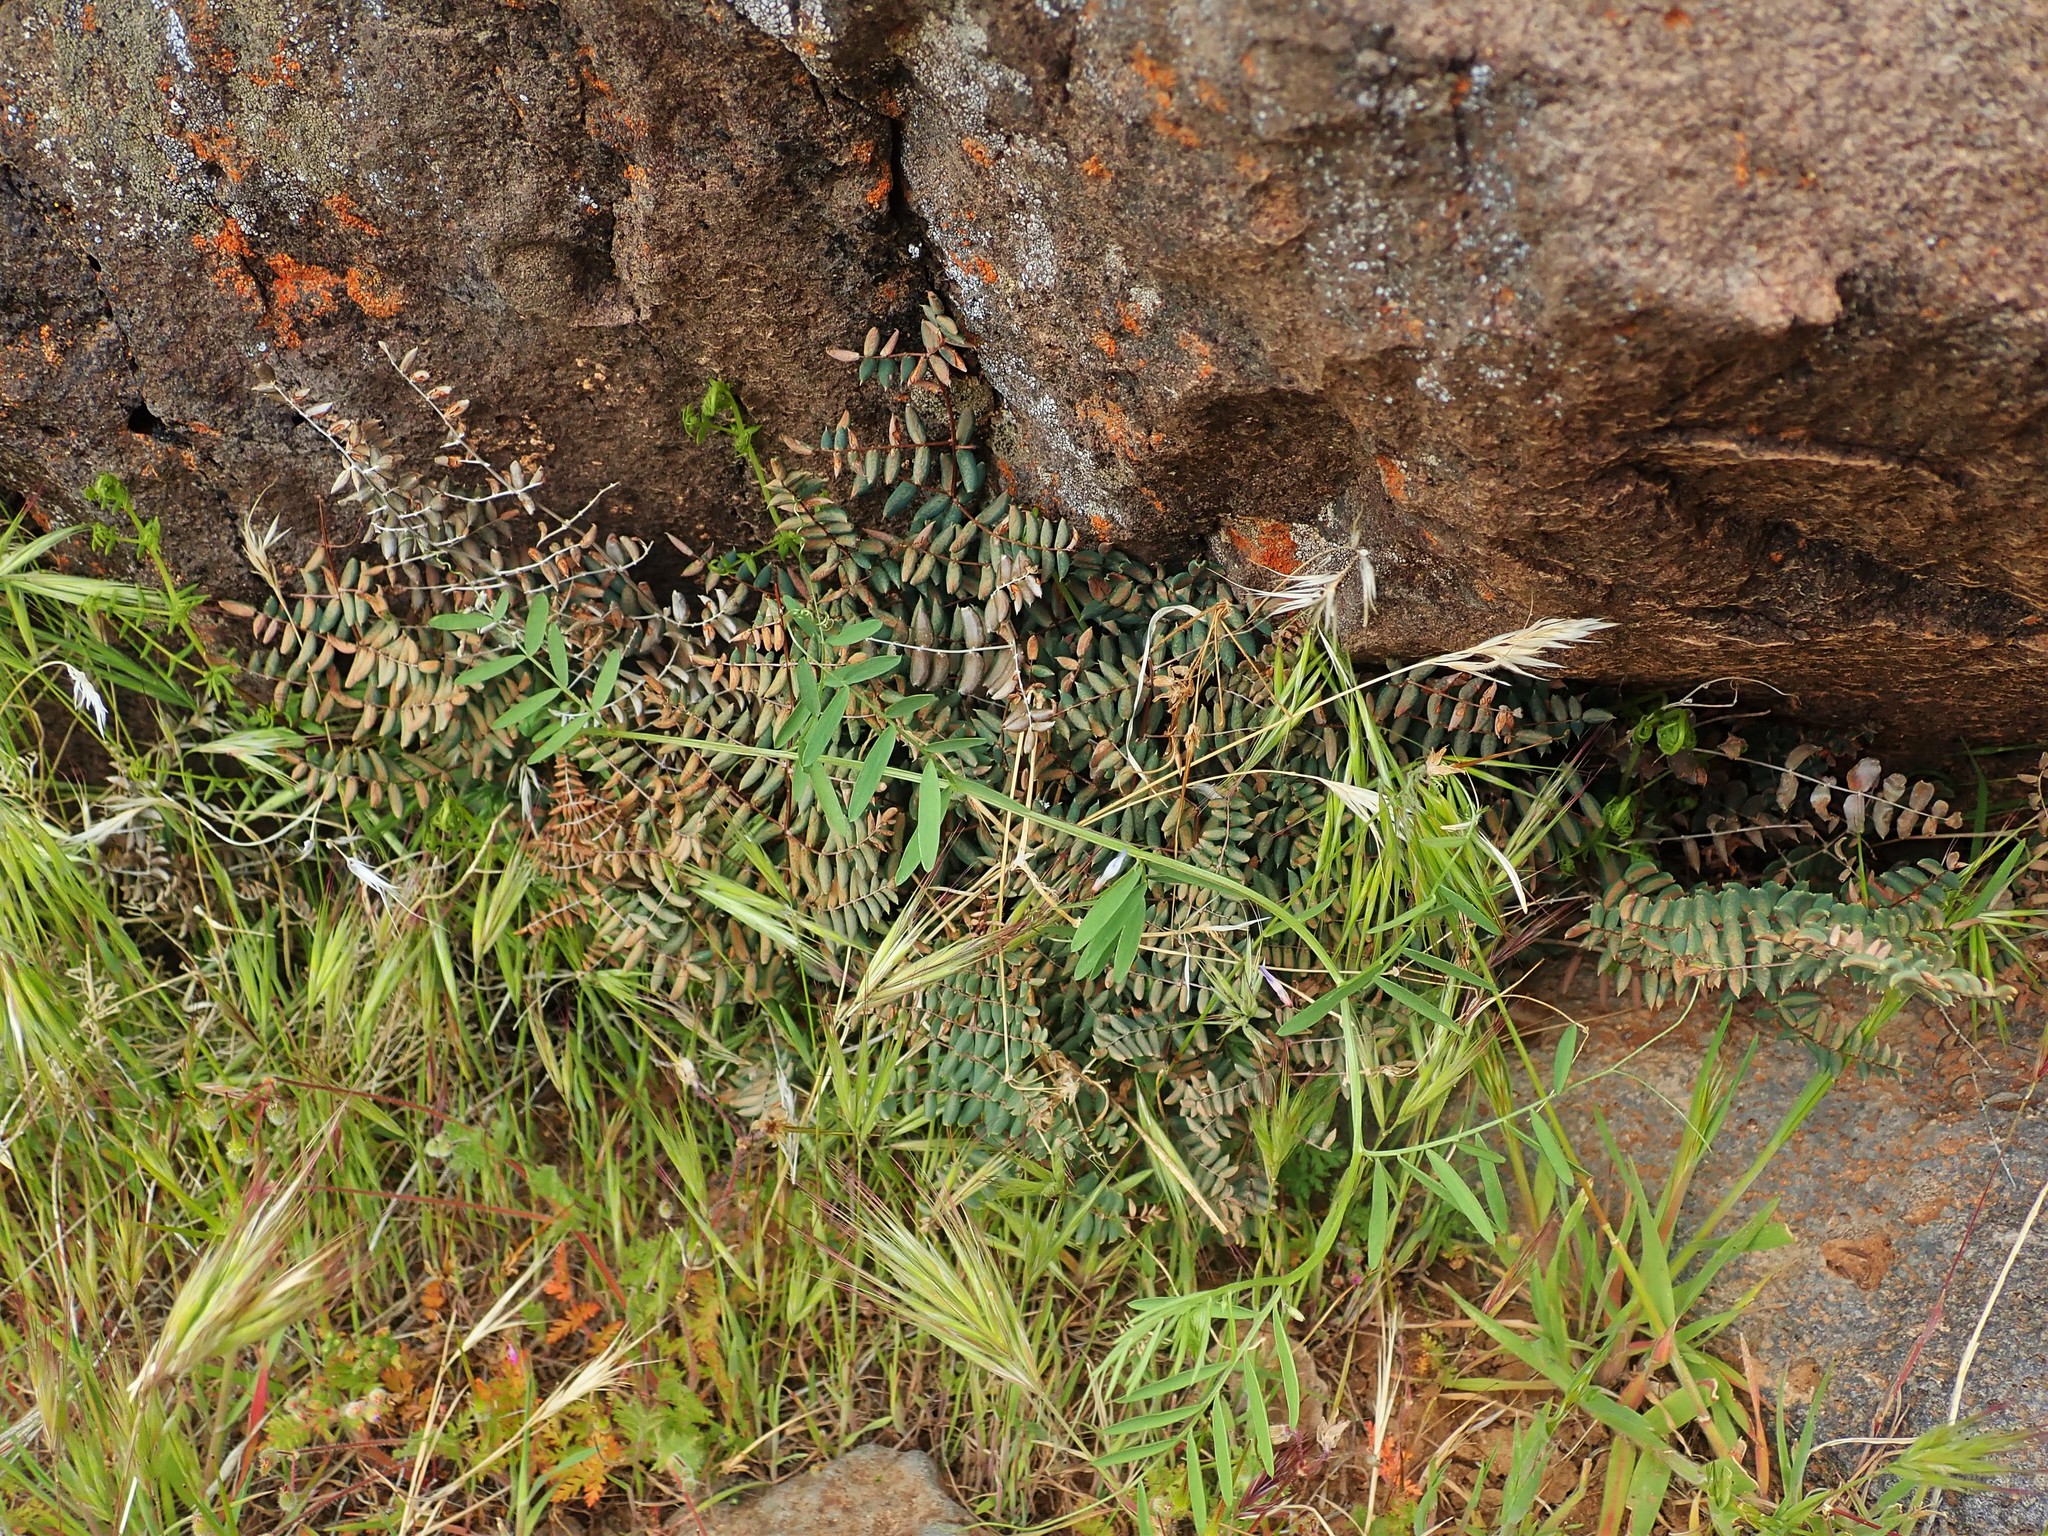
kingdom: Plantae
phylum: Tracheophyta
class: Polypodiopsida
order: Polypodiales
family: Pteridaceae
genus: Pellaea
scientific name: Pellaea truncata
